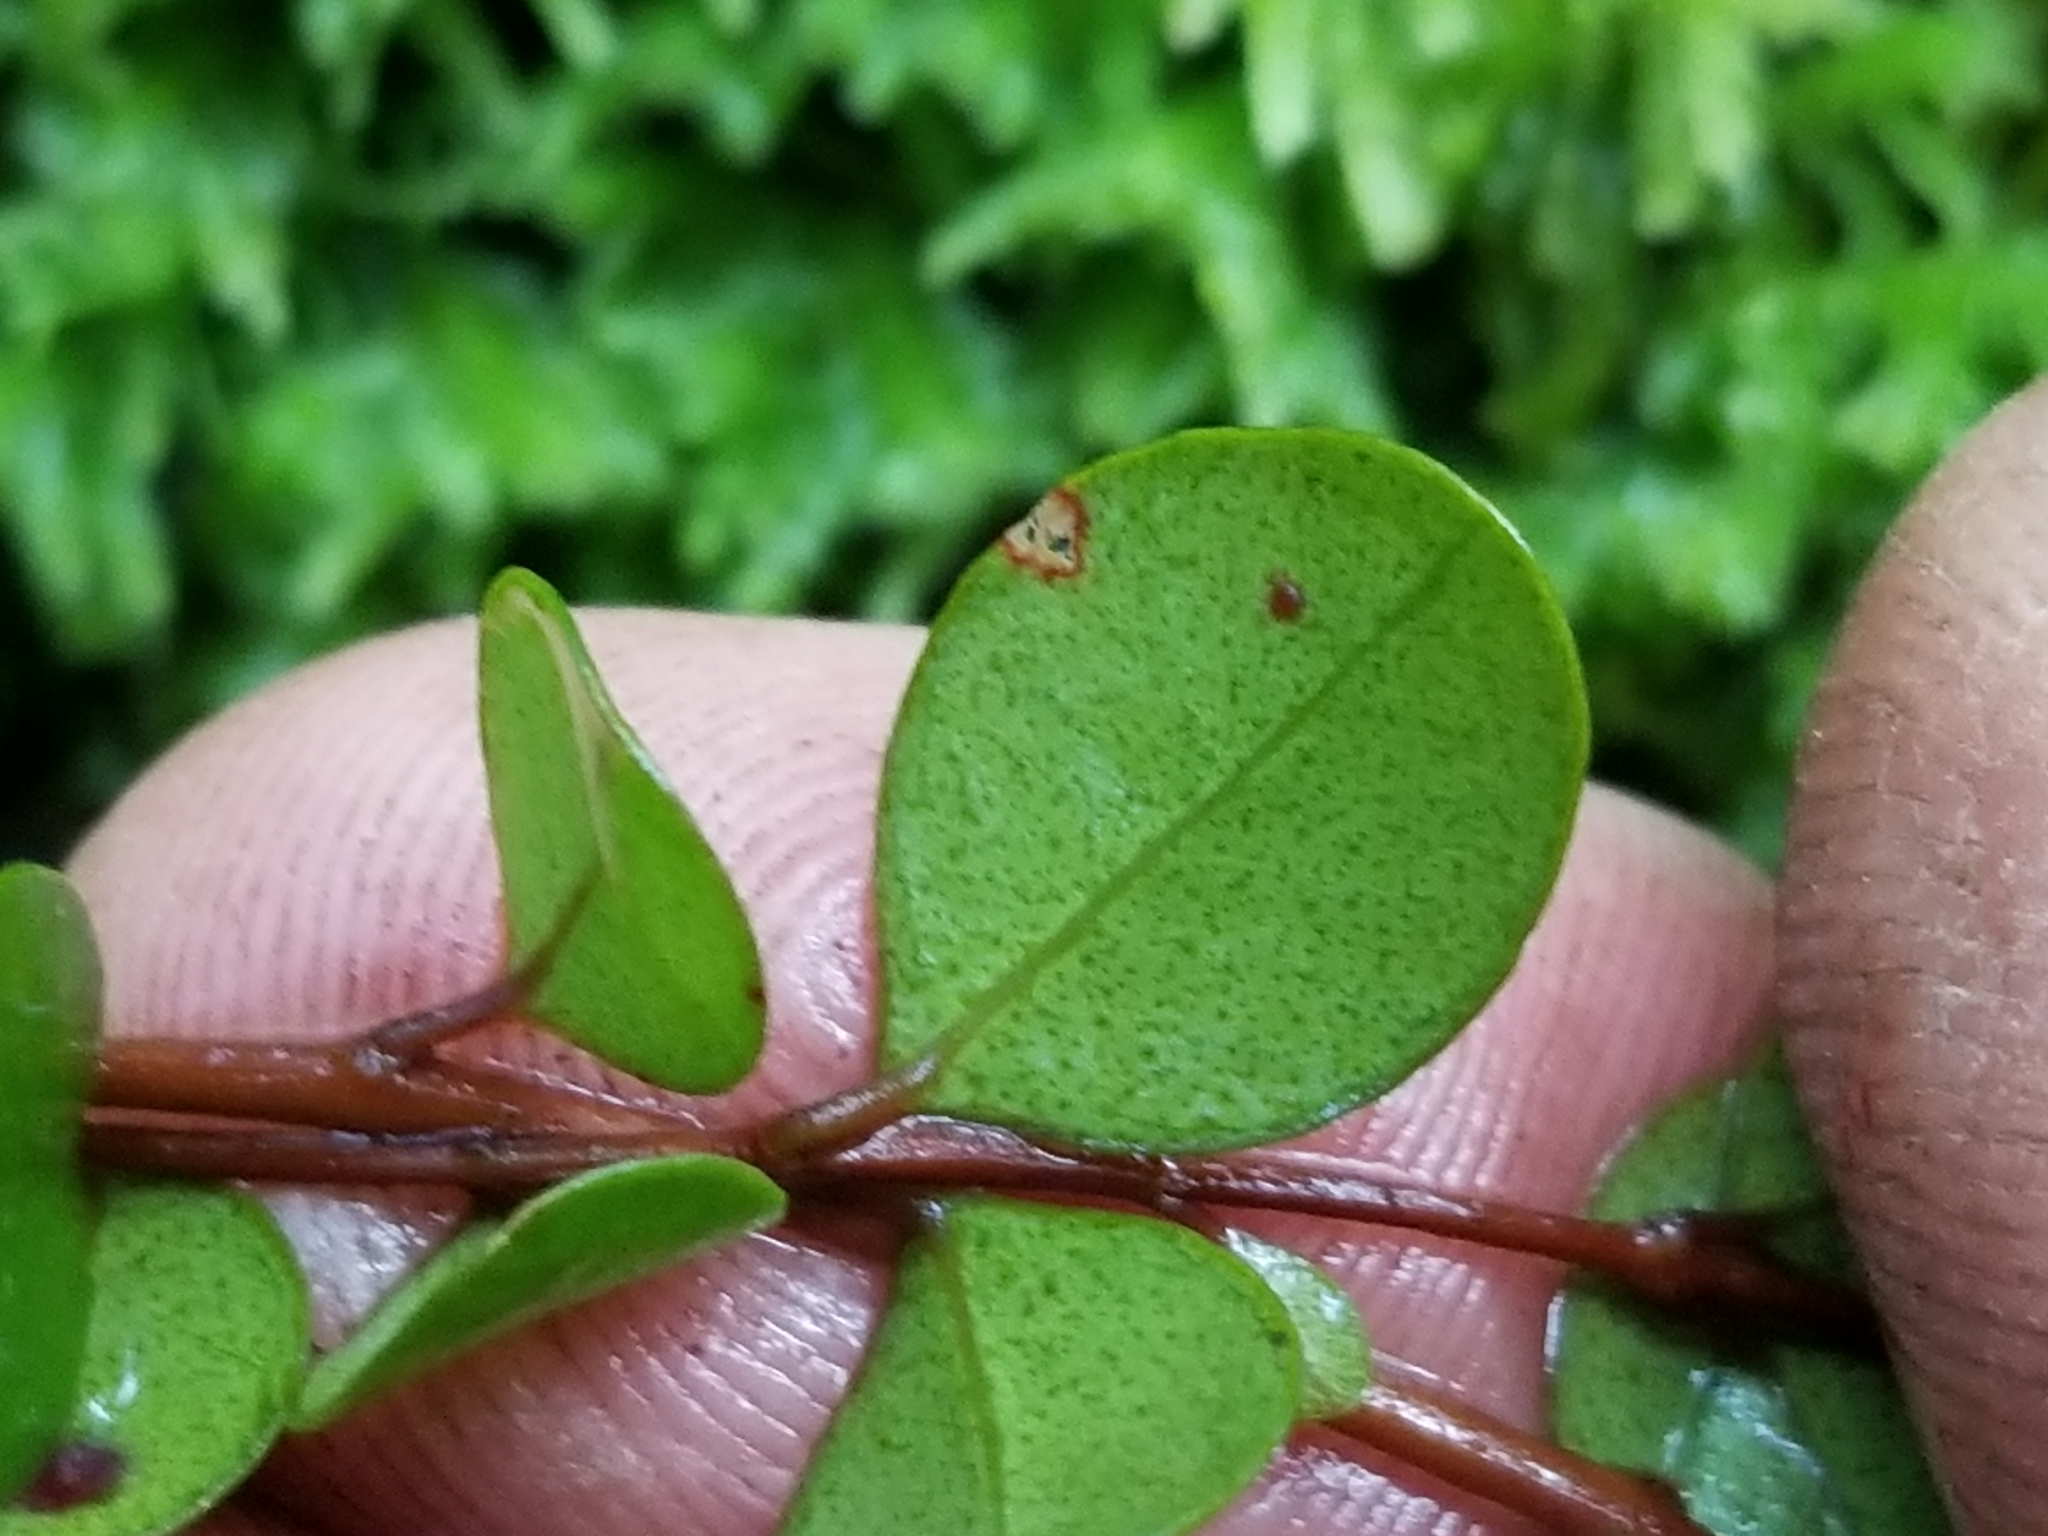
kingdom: Plantae
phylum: Tracheophyta
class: Magnoliopsida
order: Myrtales
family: Myrtaceae
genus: Metrosideros
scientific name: Metrosideros perforata
